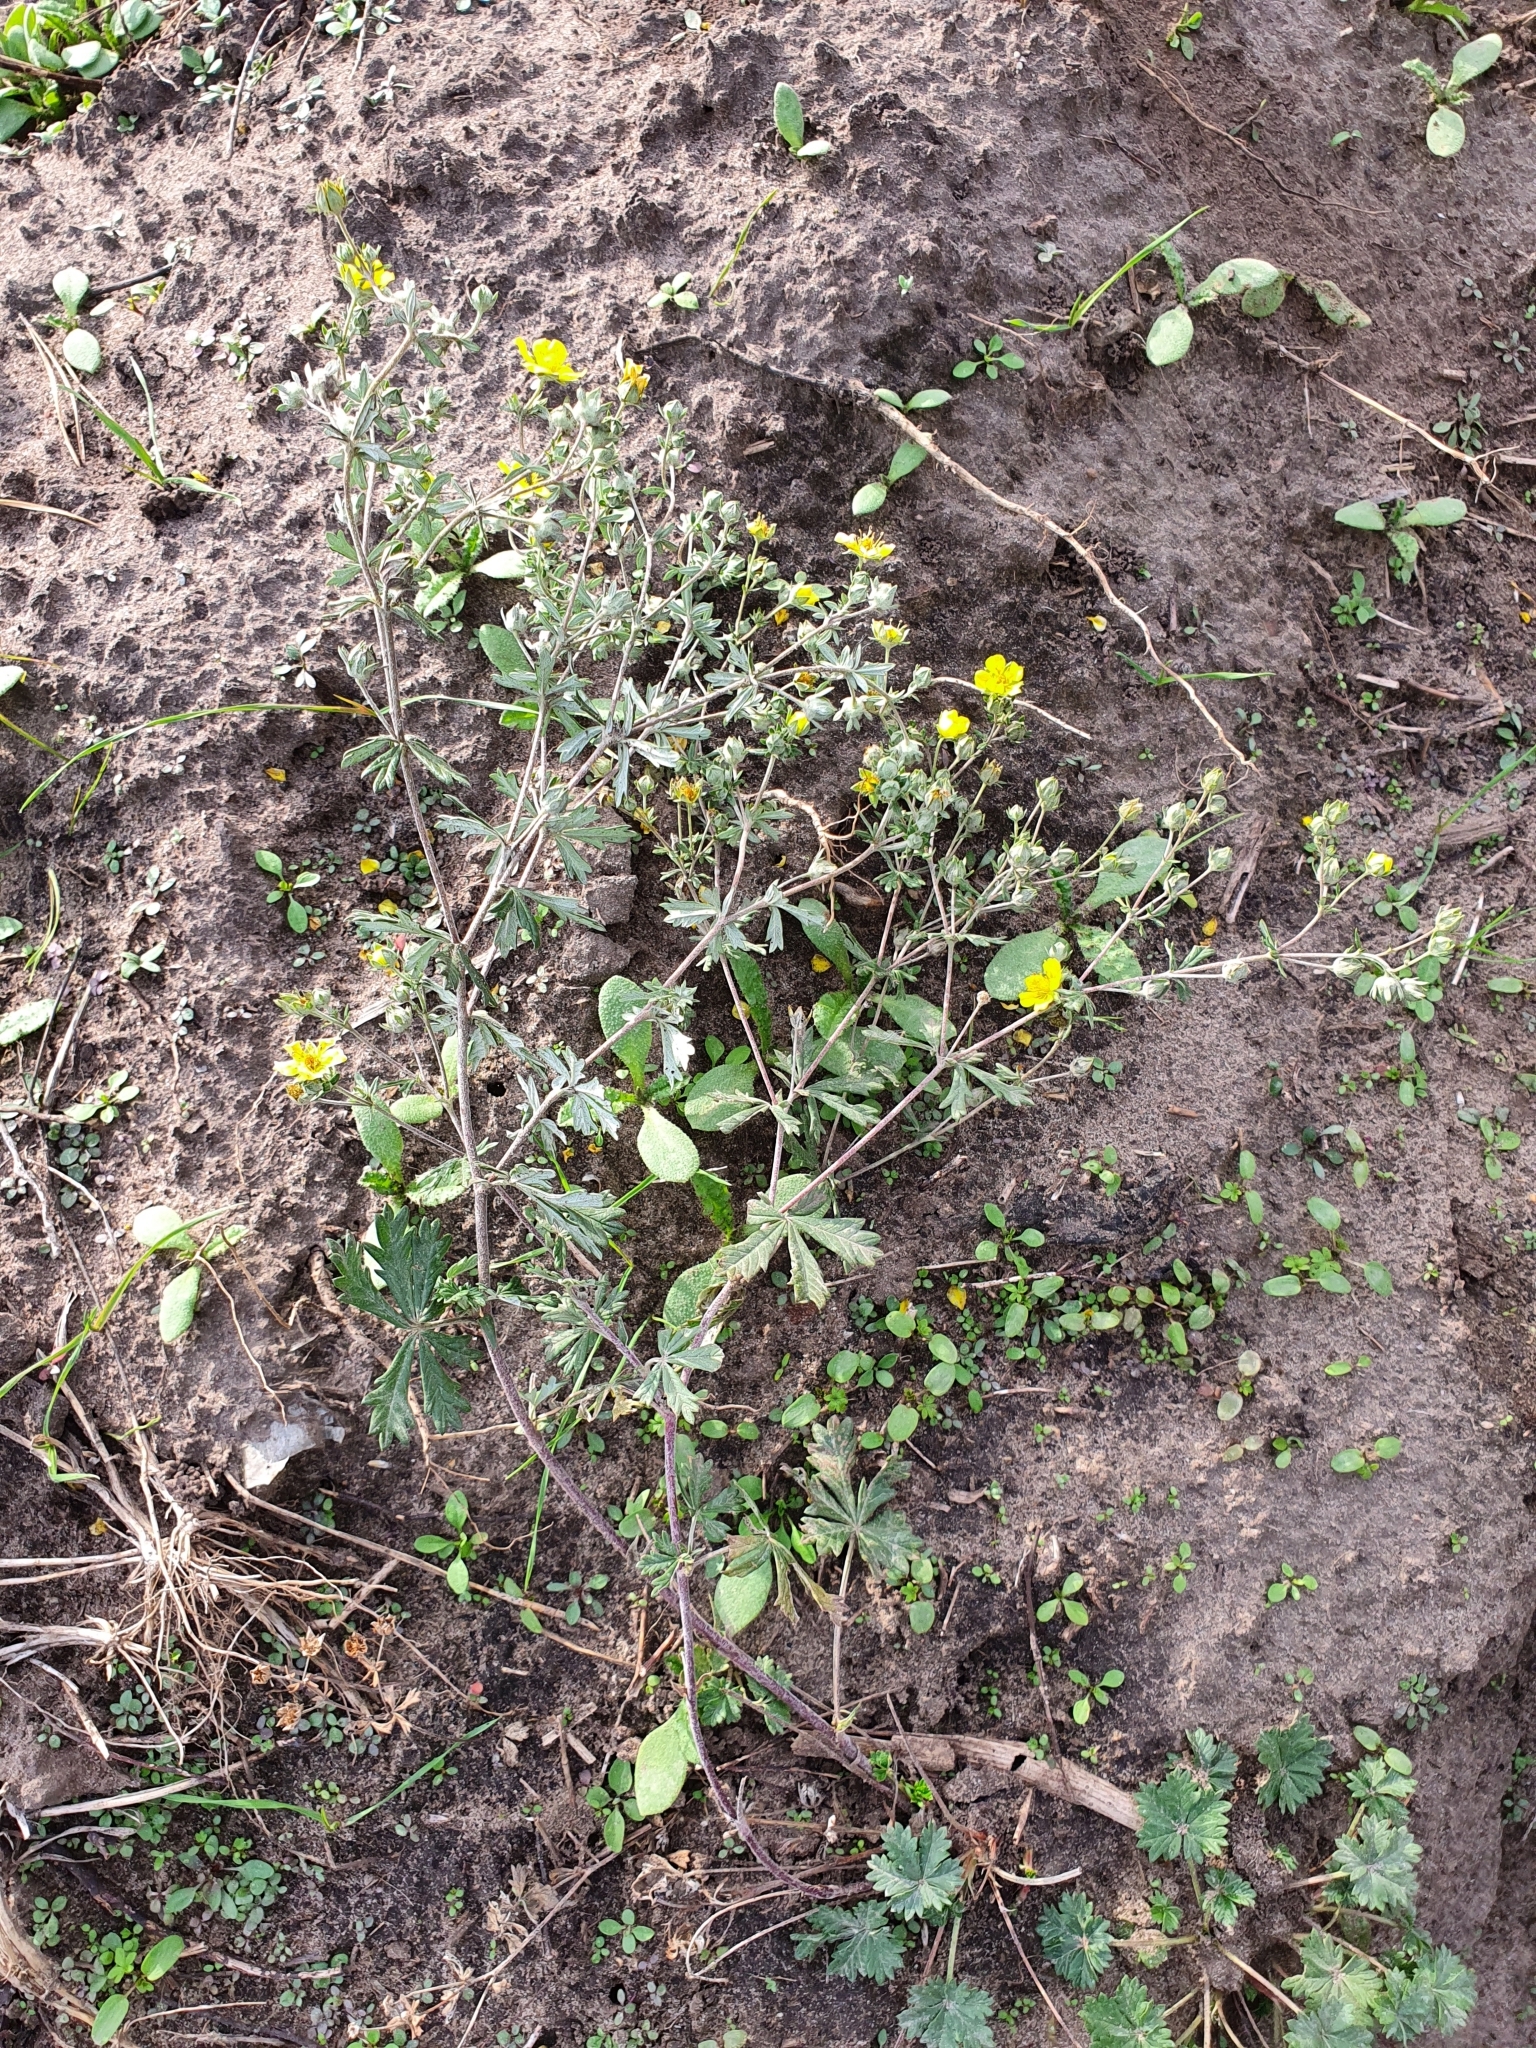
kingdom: Plantae
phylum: Tracheophyta
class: Magnoliopsida
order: Rosales
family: Rosaceae
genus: Potentilla
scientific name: Potentilla argentea
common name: Hoary cinquefoil
